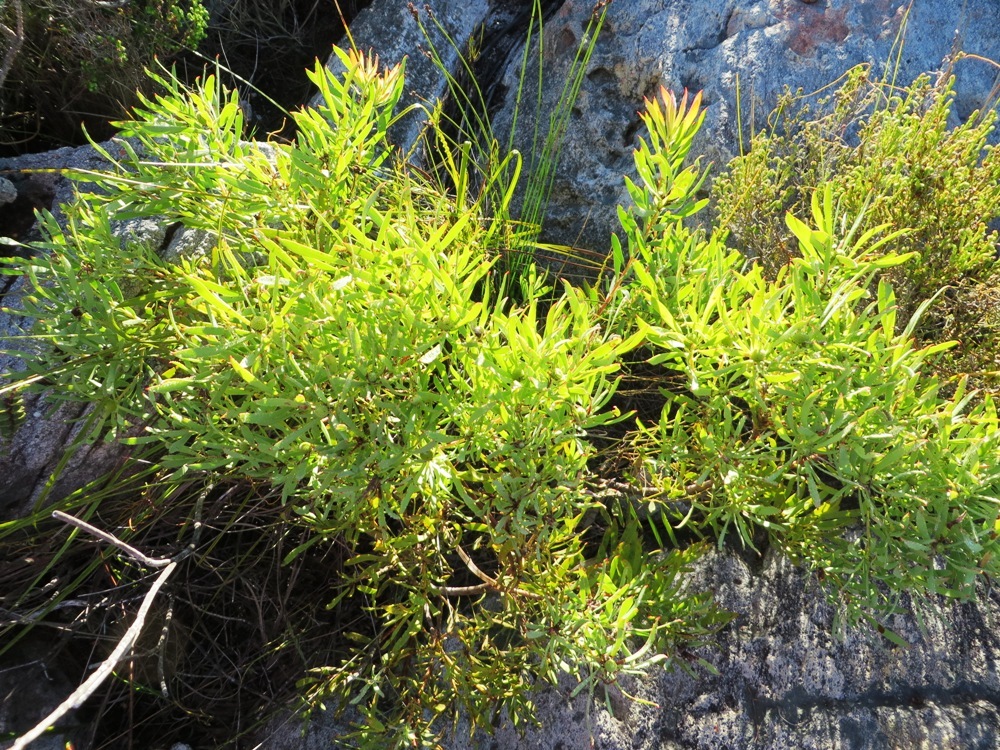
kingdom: Plantae
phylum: Tracheophyta
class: Magnoliopsida
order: Proteales
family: Proteaceae
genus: Leucadendron
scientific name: Leucadendron salignum
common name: Common sunshine conebush
